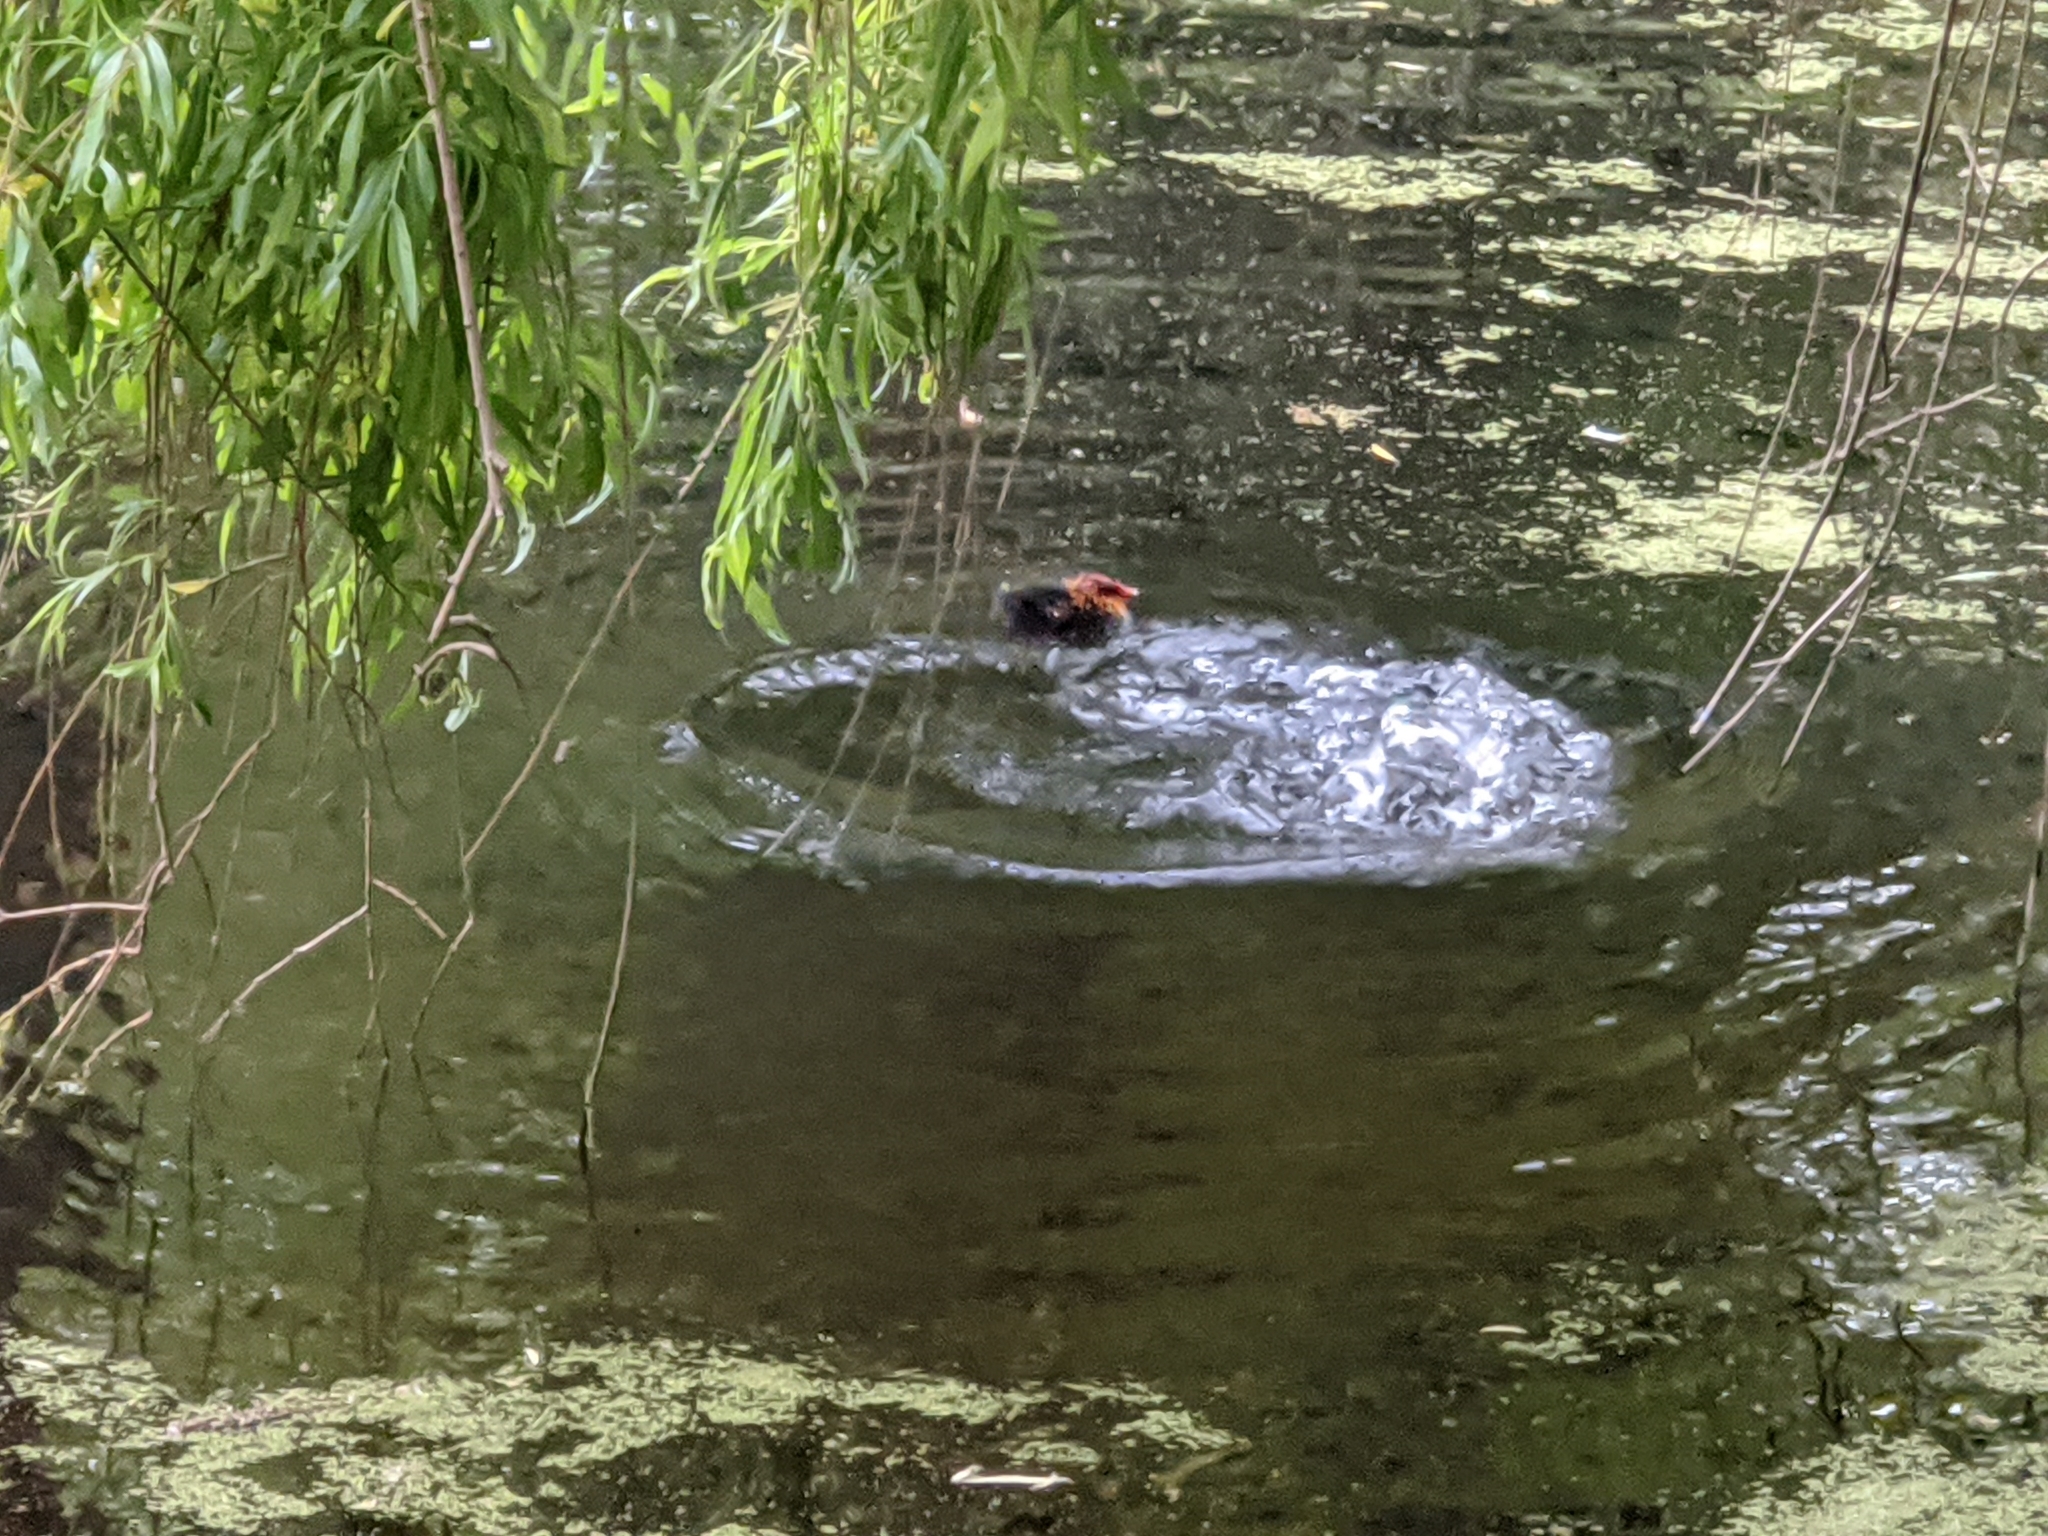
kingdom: Animalia
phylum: Chordata
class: Aves
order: Gruiformes
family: Rallidae
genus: Fulica
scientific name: Fulica atra
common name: Eurasian coot
